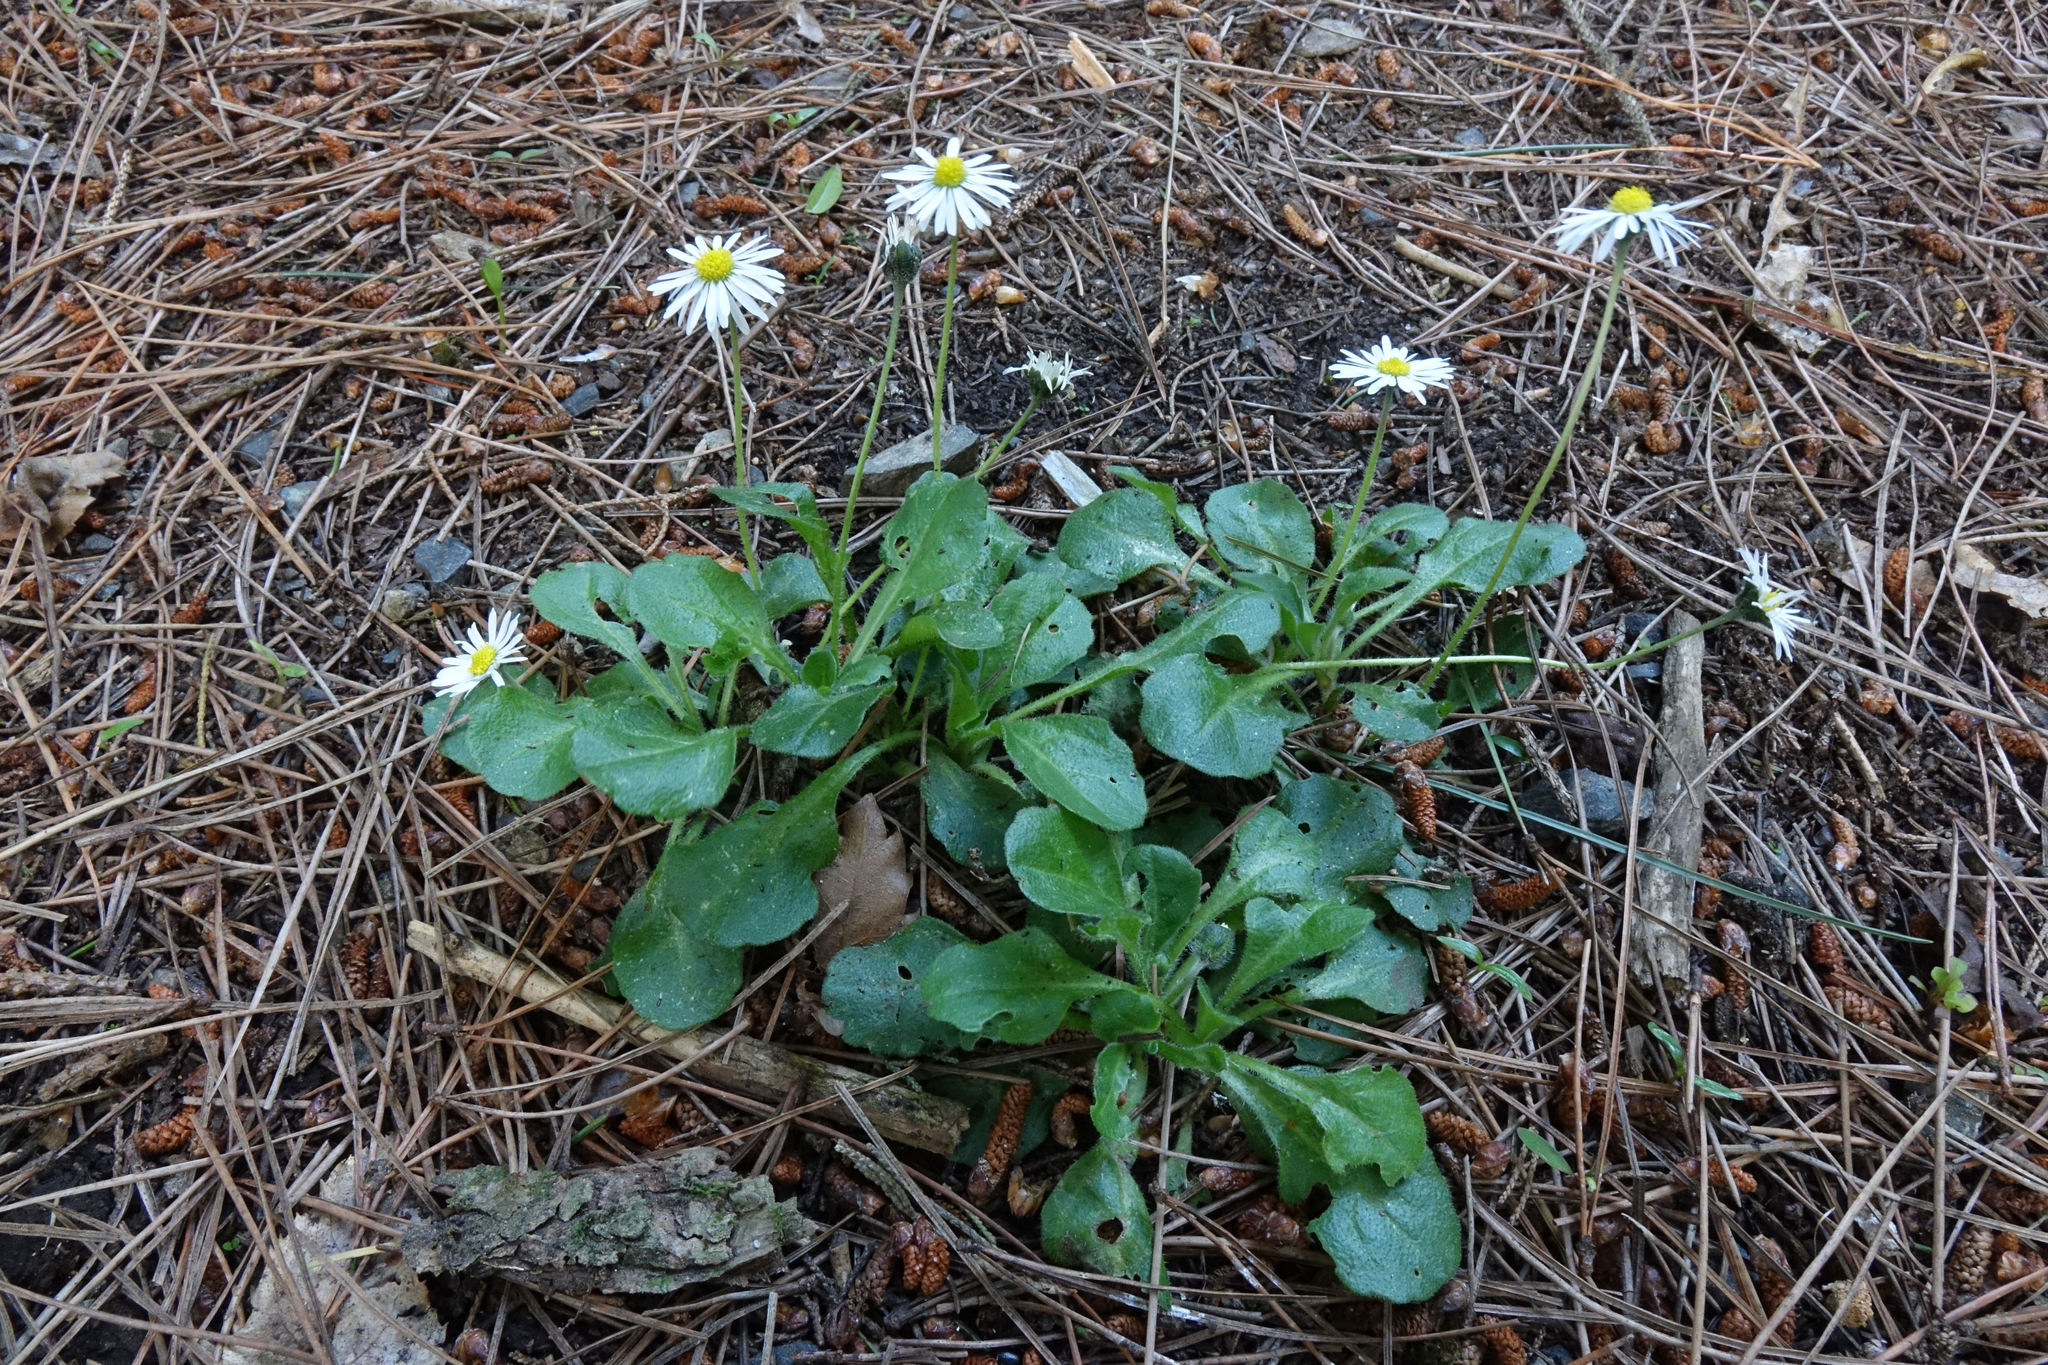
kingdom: Plantae
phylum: Tracheophyta
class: Magnoliopsida
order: Asterales
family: Asteraceae
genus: Bellis
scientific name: Bellis perennis
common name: Lawndaisy
